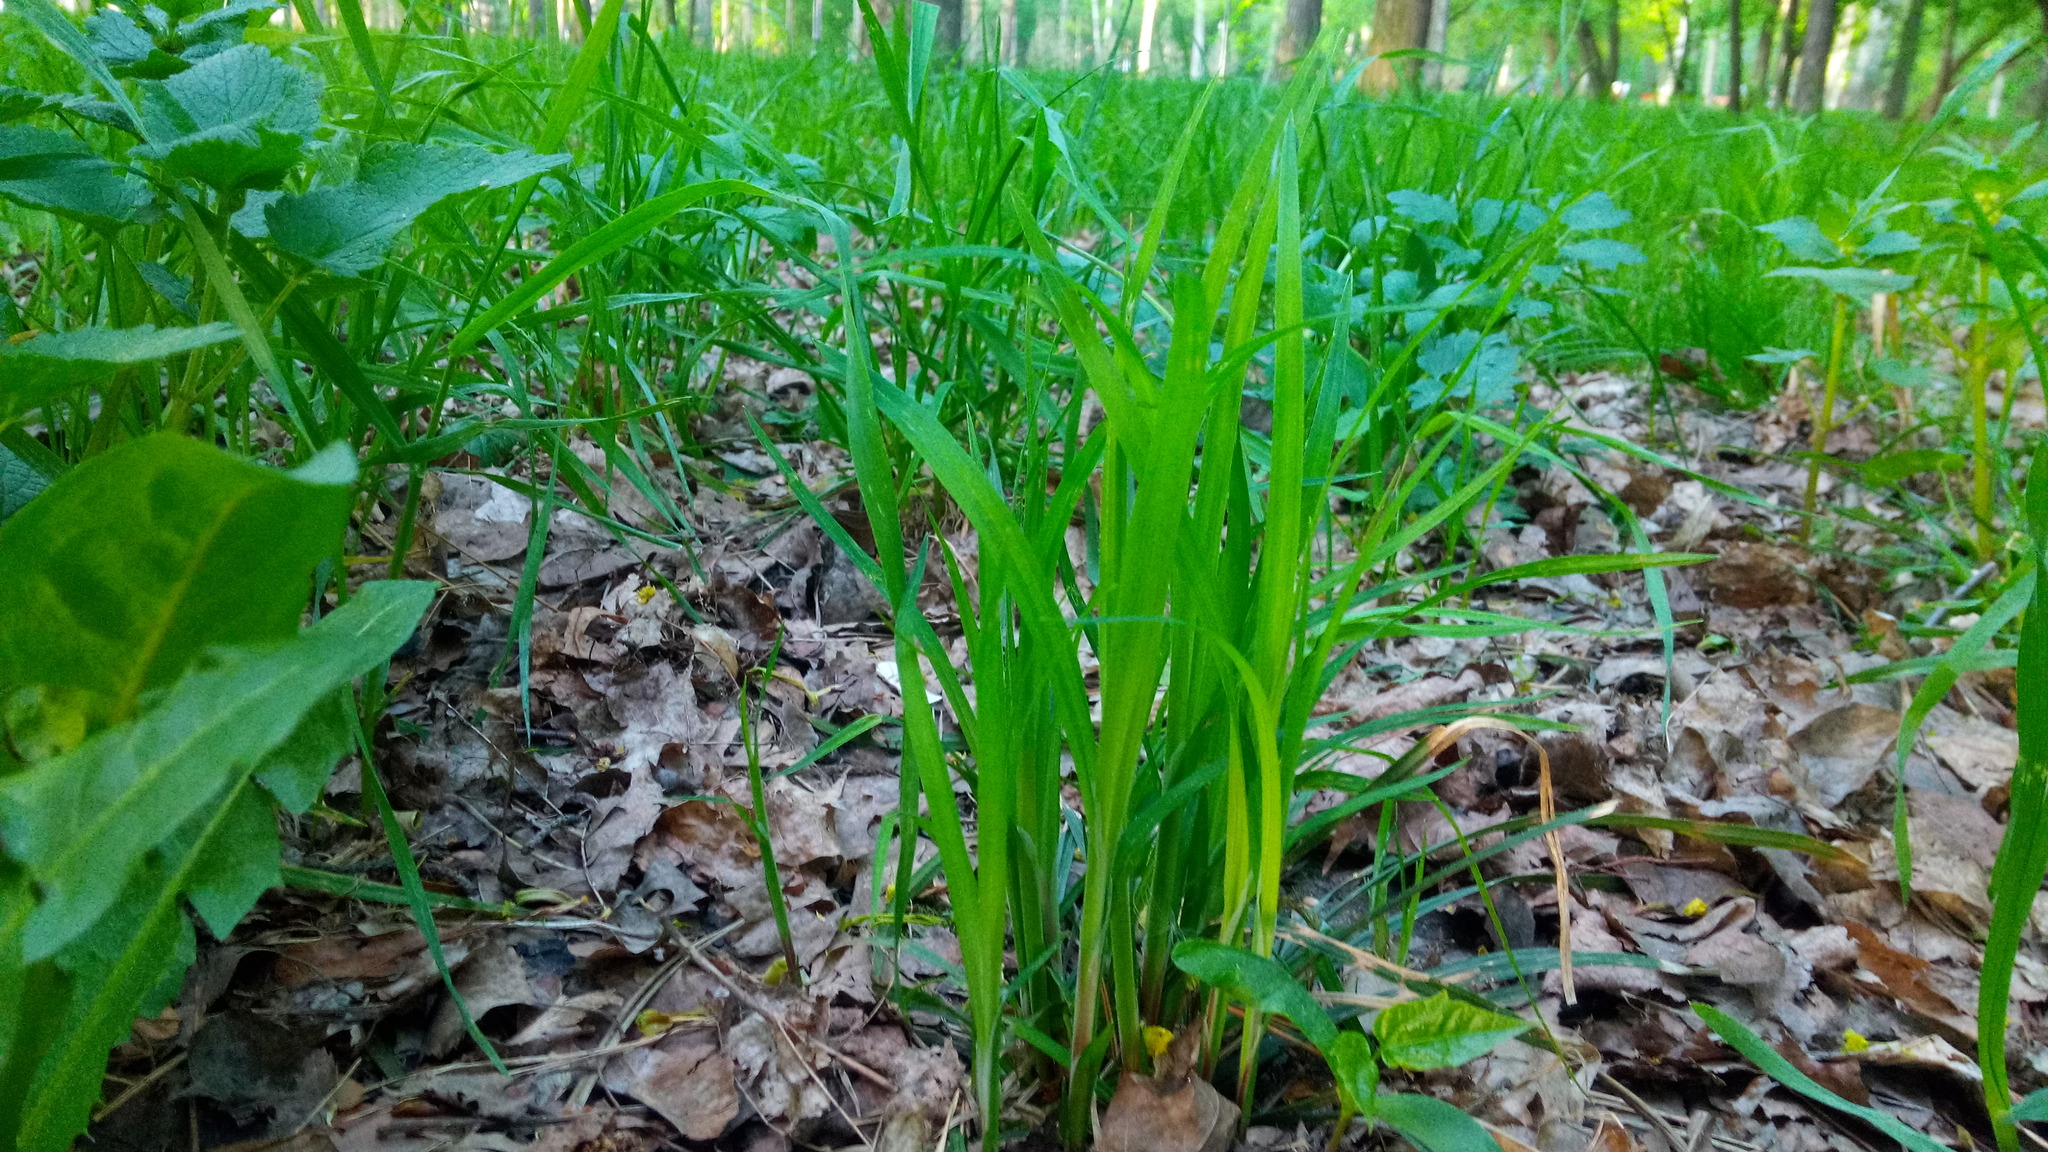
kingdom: Plantae
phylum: Tracheophyta
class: Liliopsida
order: Poales
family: Cyperaceae
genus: Carex
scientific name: Carex pilosa
